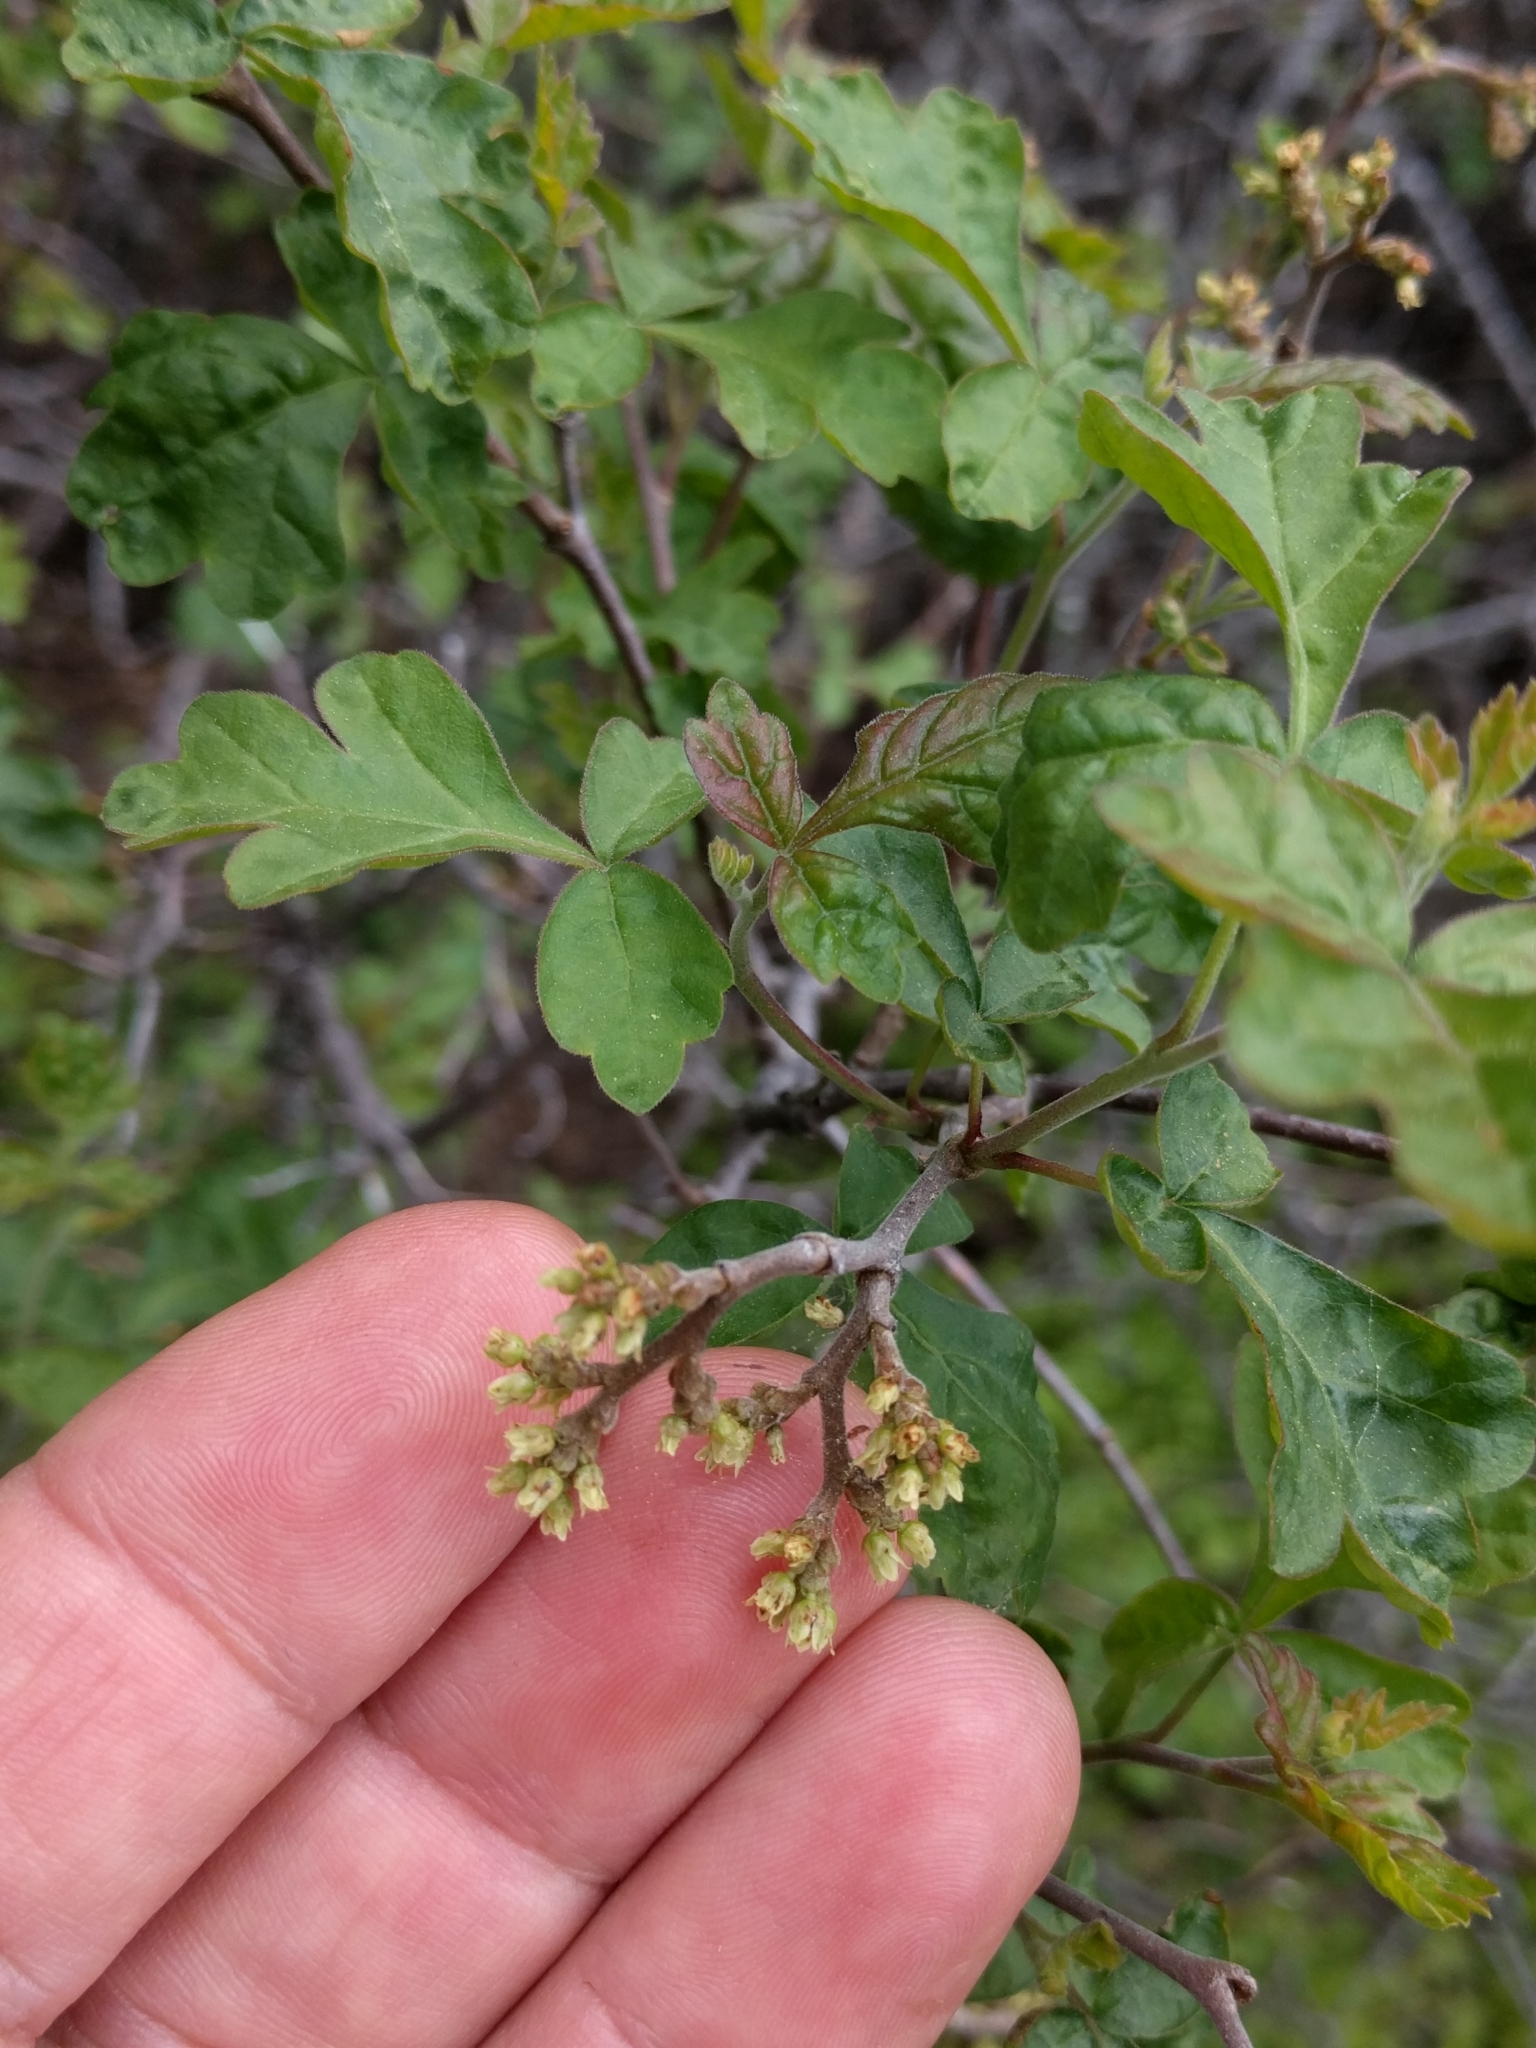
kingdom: Plantae
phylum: Tracheophyta
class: Magnoliopsida
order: Sapindales
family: Anacardiaceae
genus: Rhus
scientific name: Rhus aromatica
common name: Aromatic sumac
